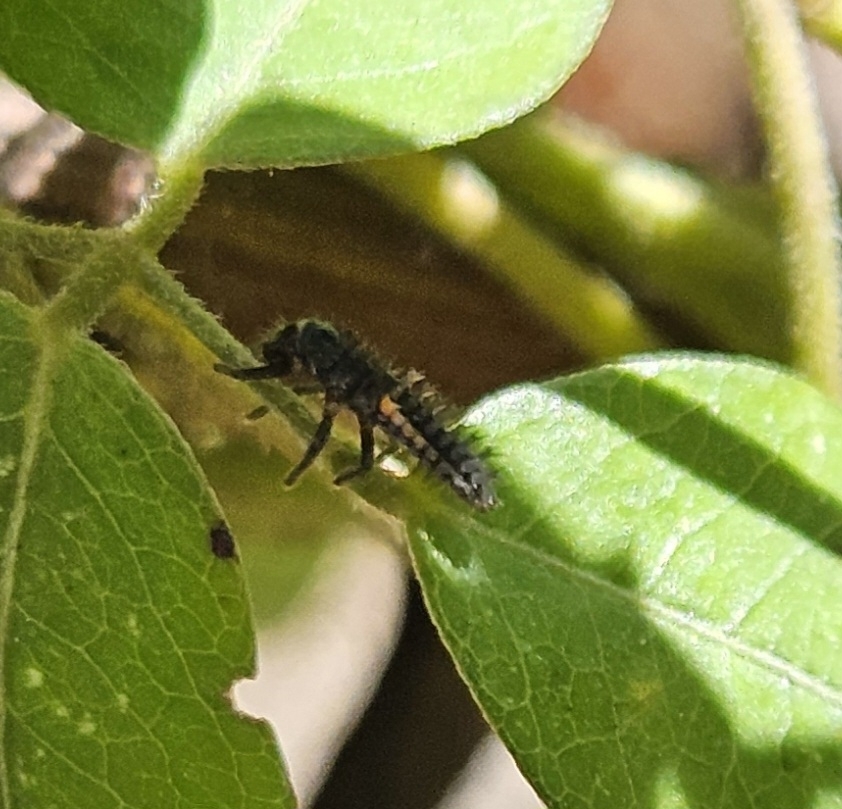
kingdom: Animalia
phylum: Arthropoda
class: Insecta
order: Coleoptera
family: Coccinellidae
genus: Harmonia
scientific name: Harmonia axyridis
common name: Harlequin ladybird
